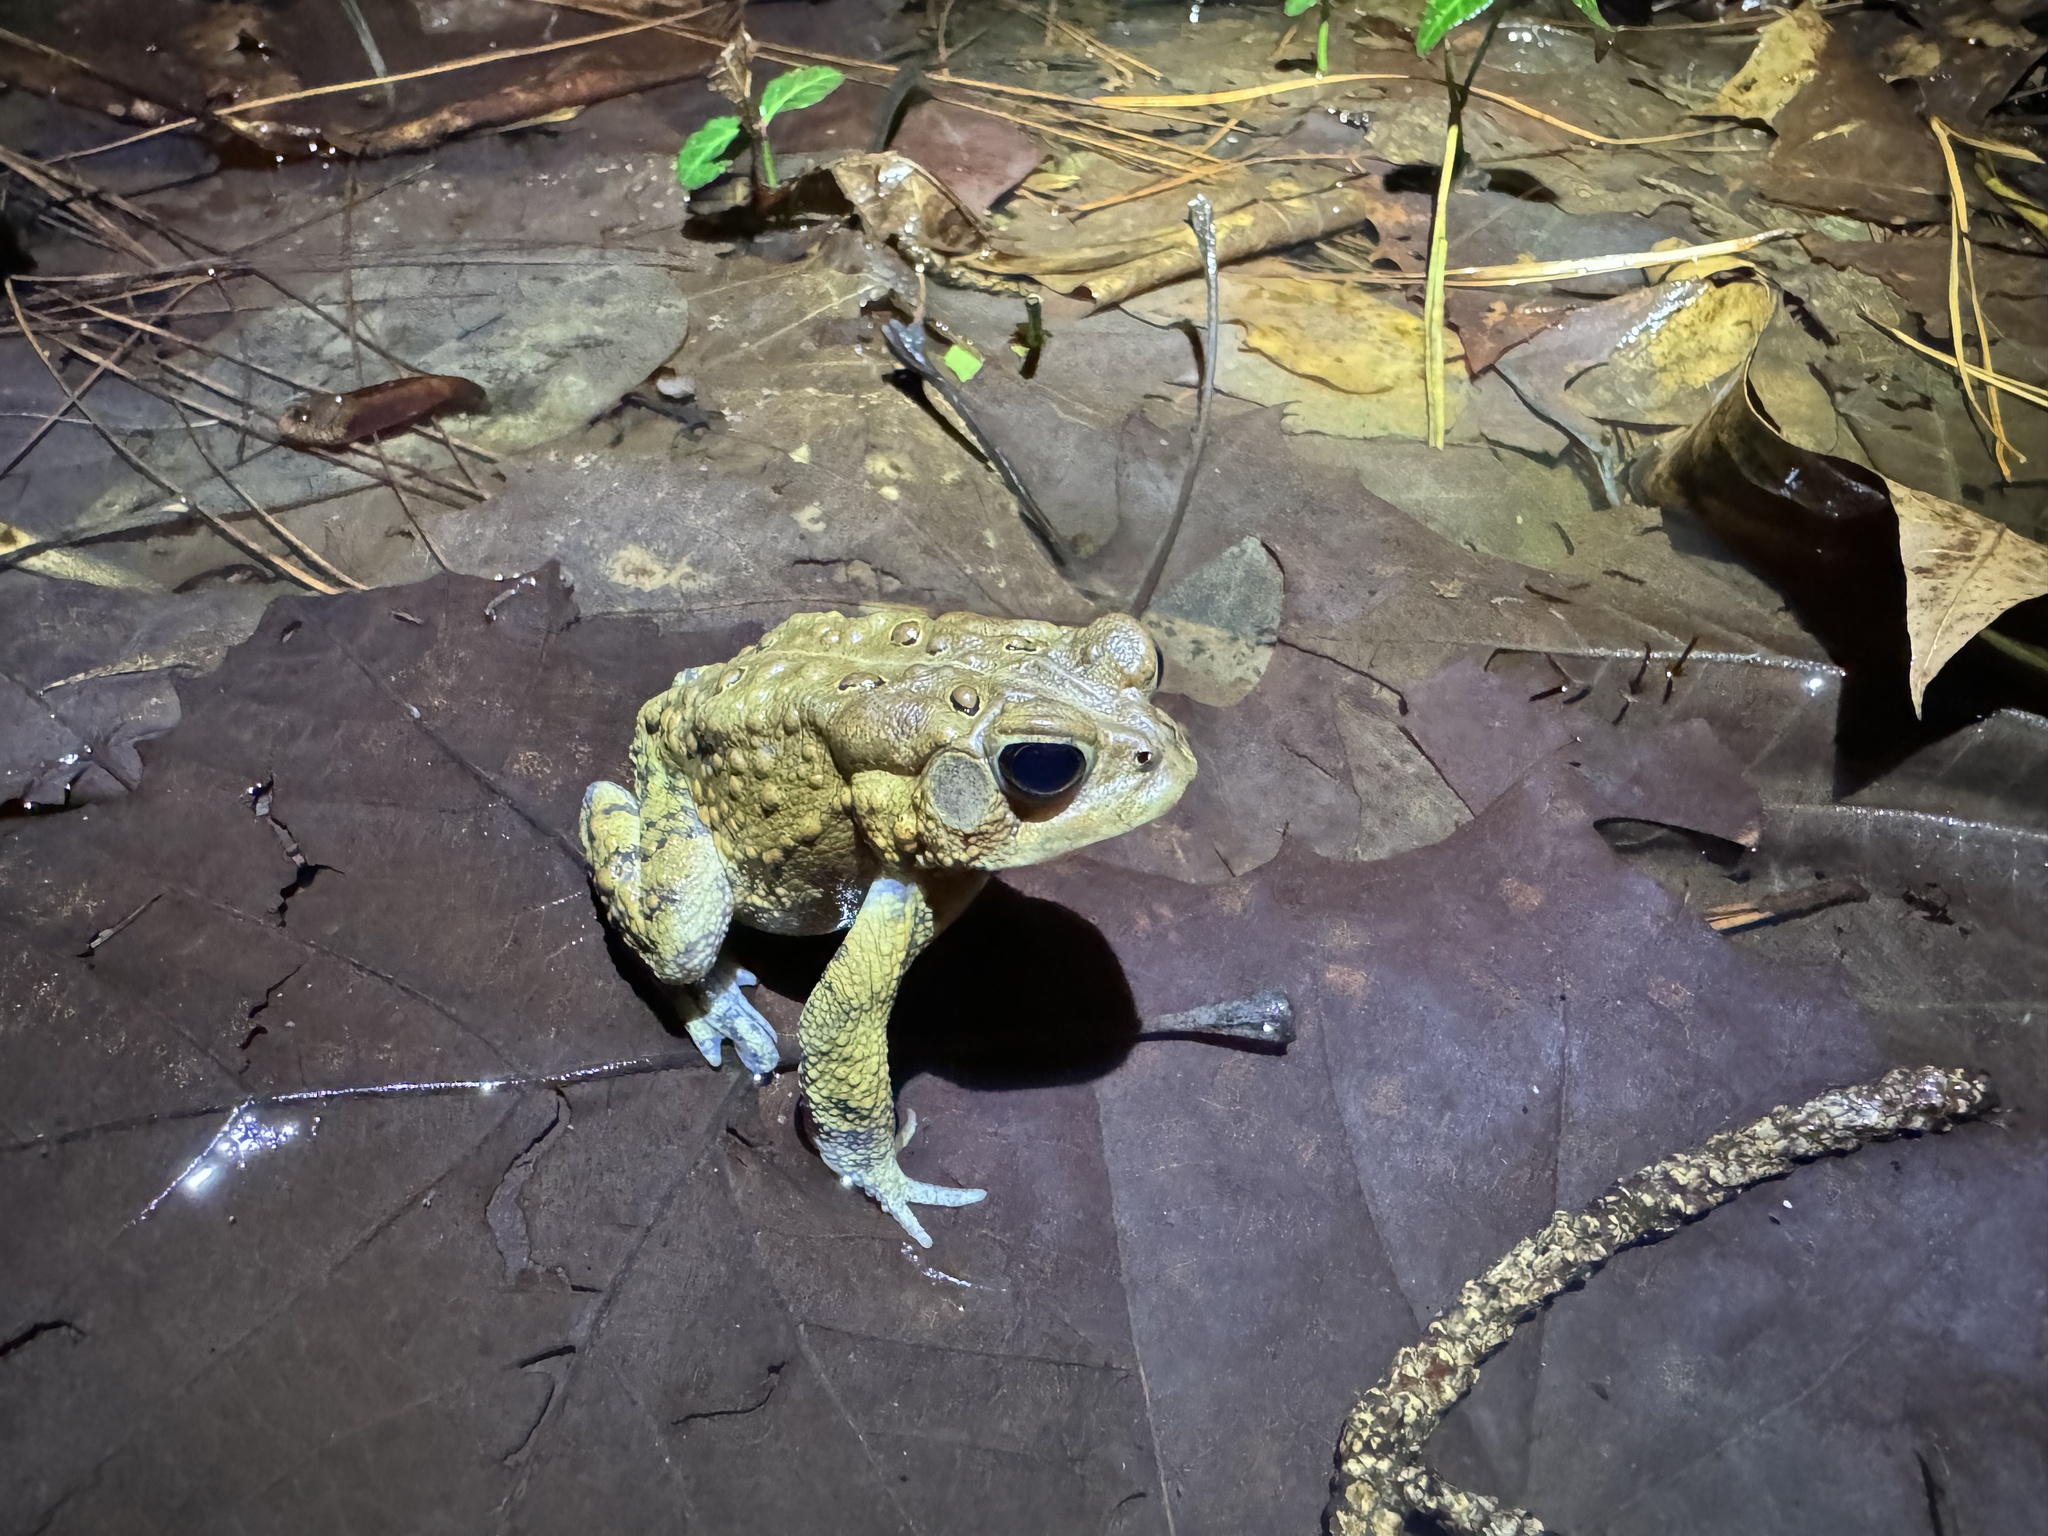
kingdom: Animalia
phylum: Chordata
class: Amphibia
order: Anura
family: Bufonidae
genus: Anaxyrus
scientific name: Anaxyrus americanus
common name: American toad
